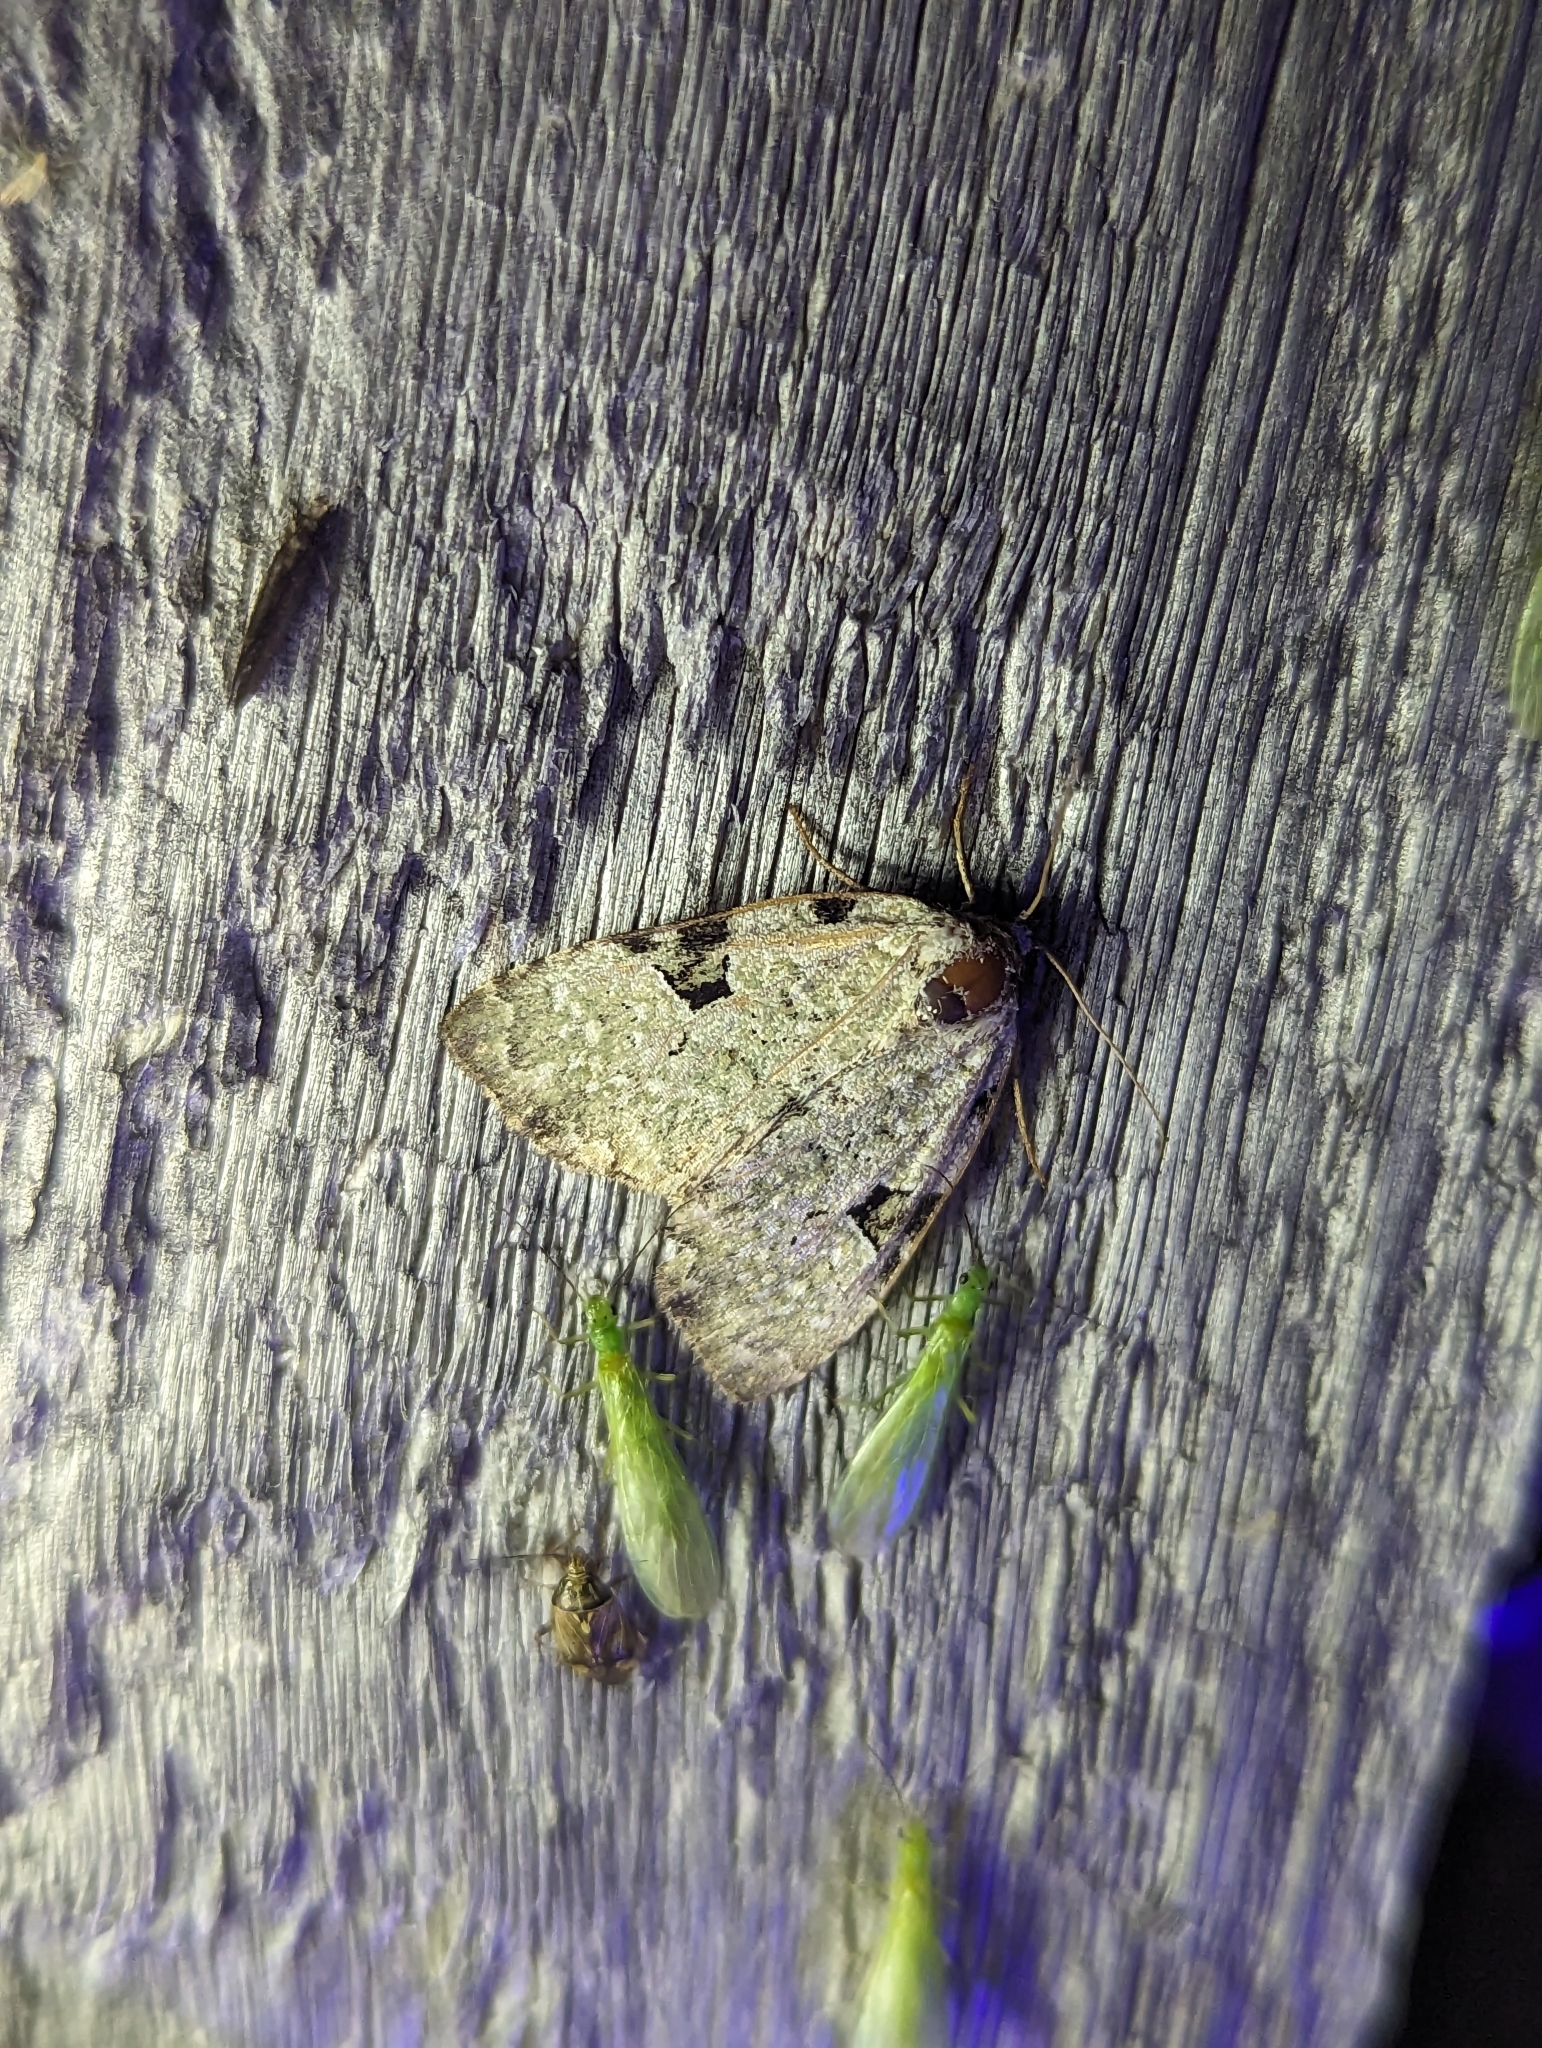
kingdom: Animalia
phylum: Arthropoda
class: Insecta
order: Lepidoptera
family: Noctuidae
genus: Leuconycta
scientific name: Leuconycta diphteroides
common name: Green leuconycta moth
